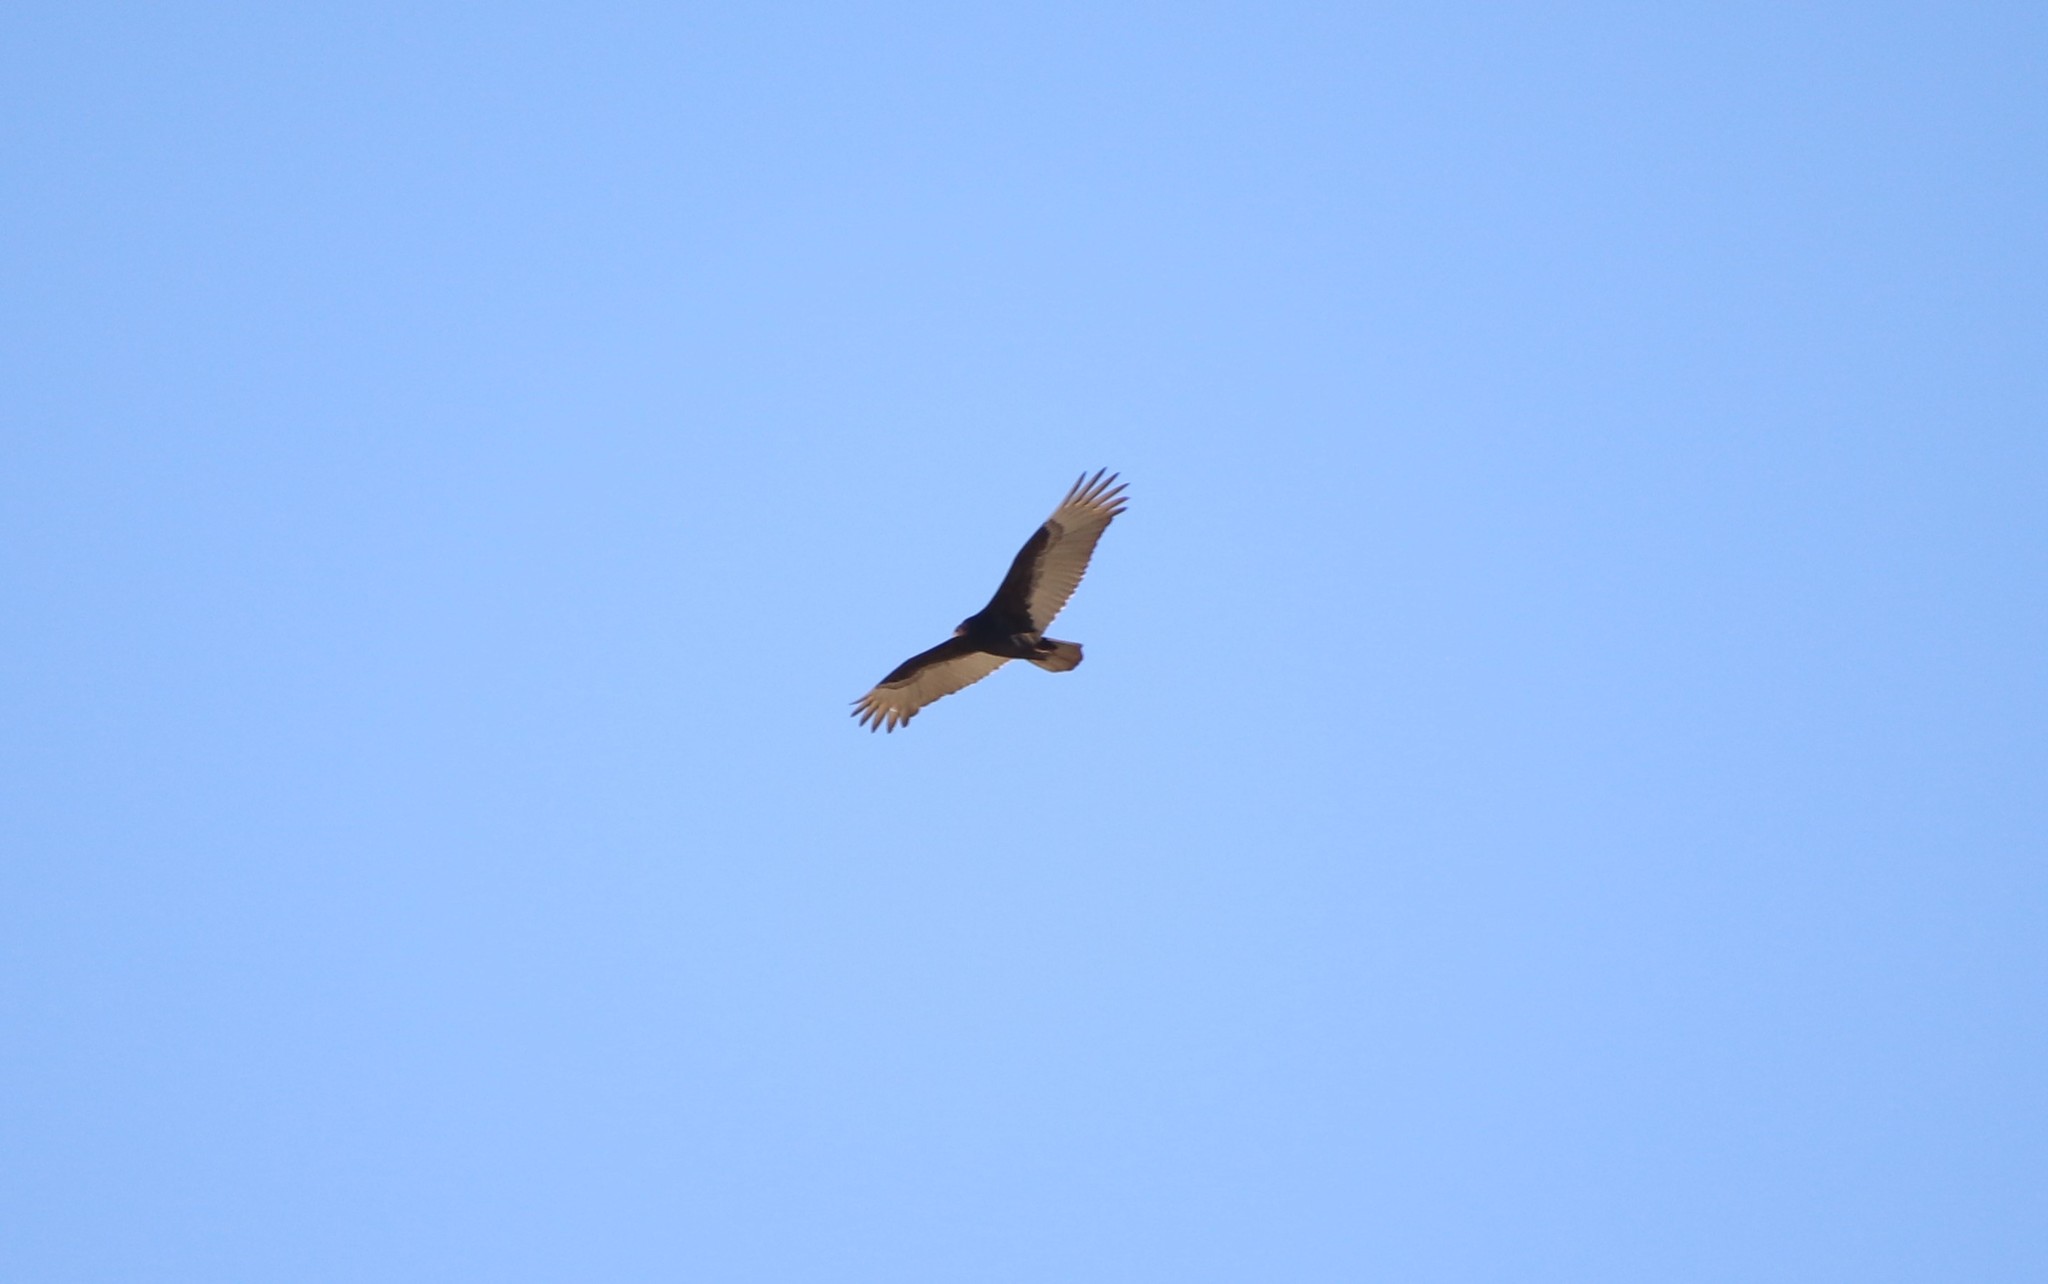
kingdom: Animalia
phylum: Chordata
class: Aves
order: Accipitriformes
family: Cathartidae
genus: Cathartes
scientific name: Cathartes aura
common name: Turkey vulture
